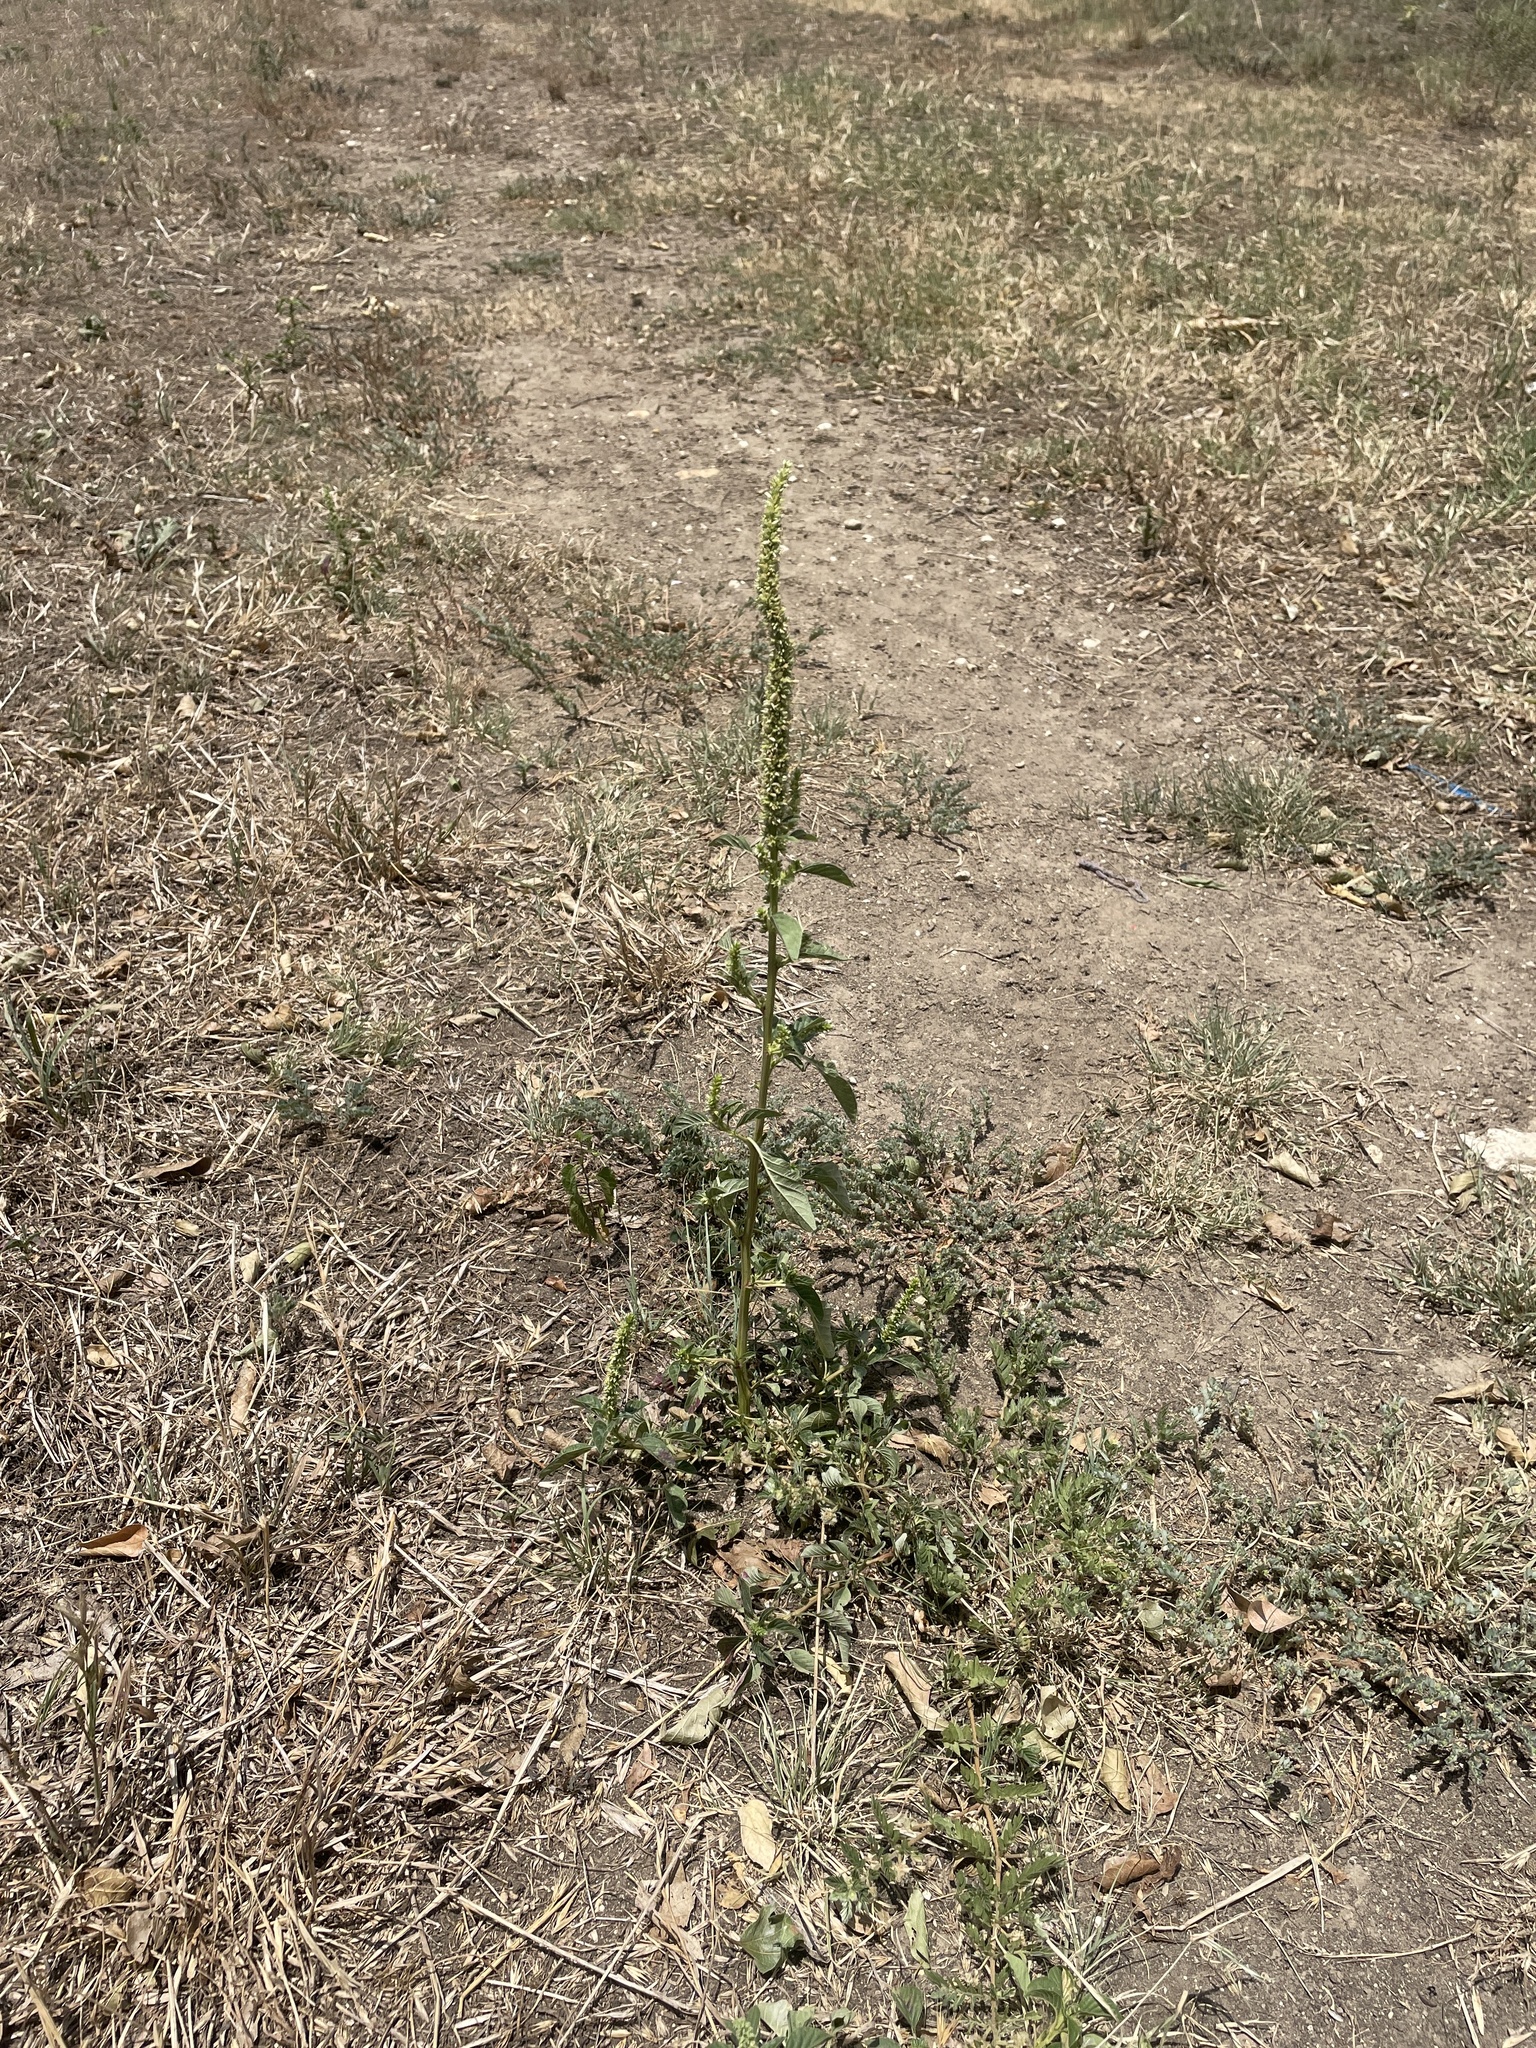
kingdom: Plantae
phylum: Tracheophyta
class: Magnoliopsida
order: Caryophyllales
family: Amaranthaceae
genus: Amaranthus
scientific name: Amaranthus palmeri
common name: Dioecious amaranth
